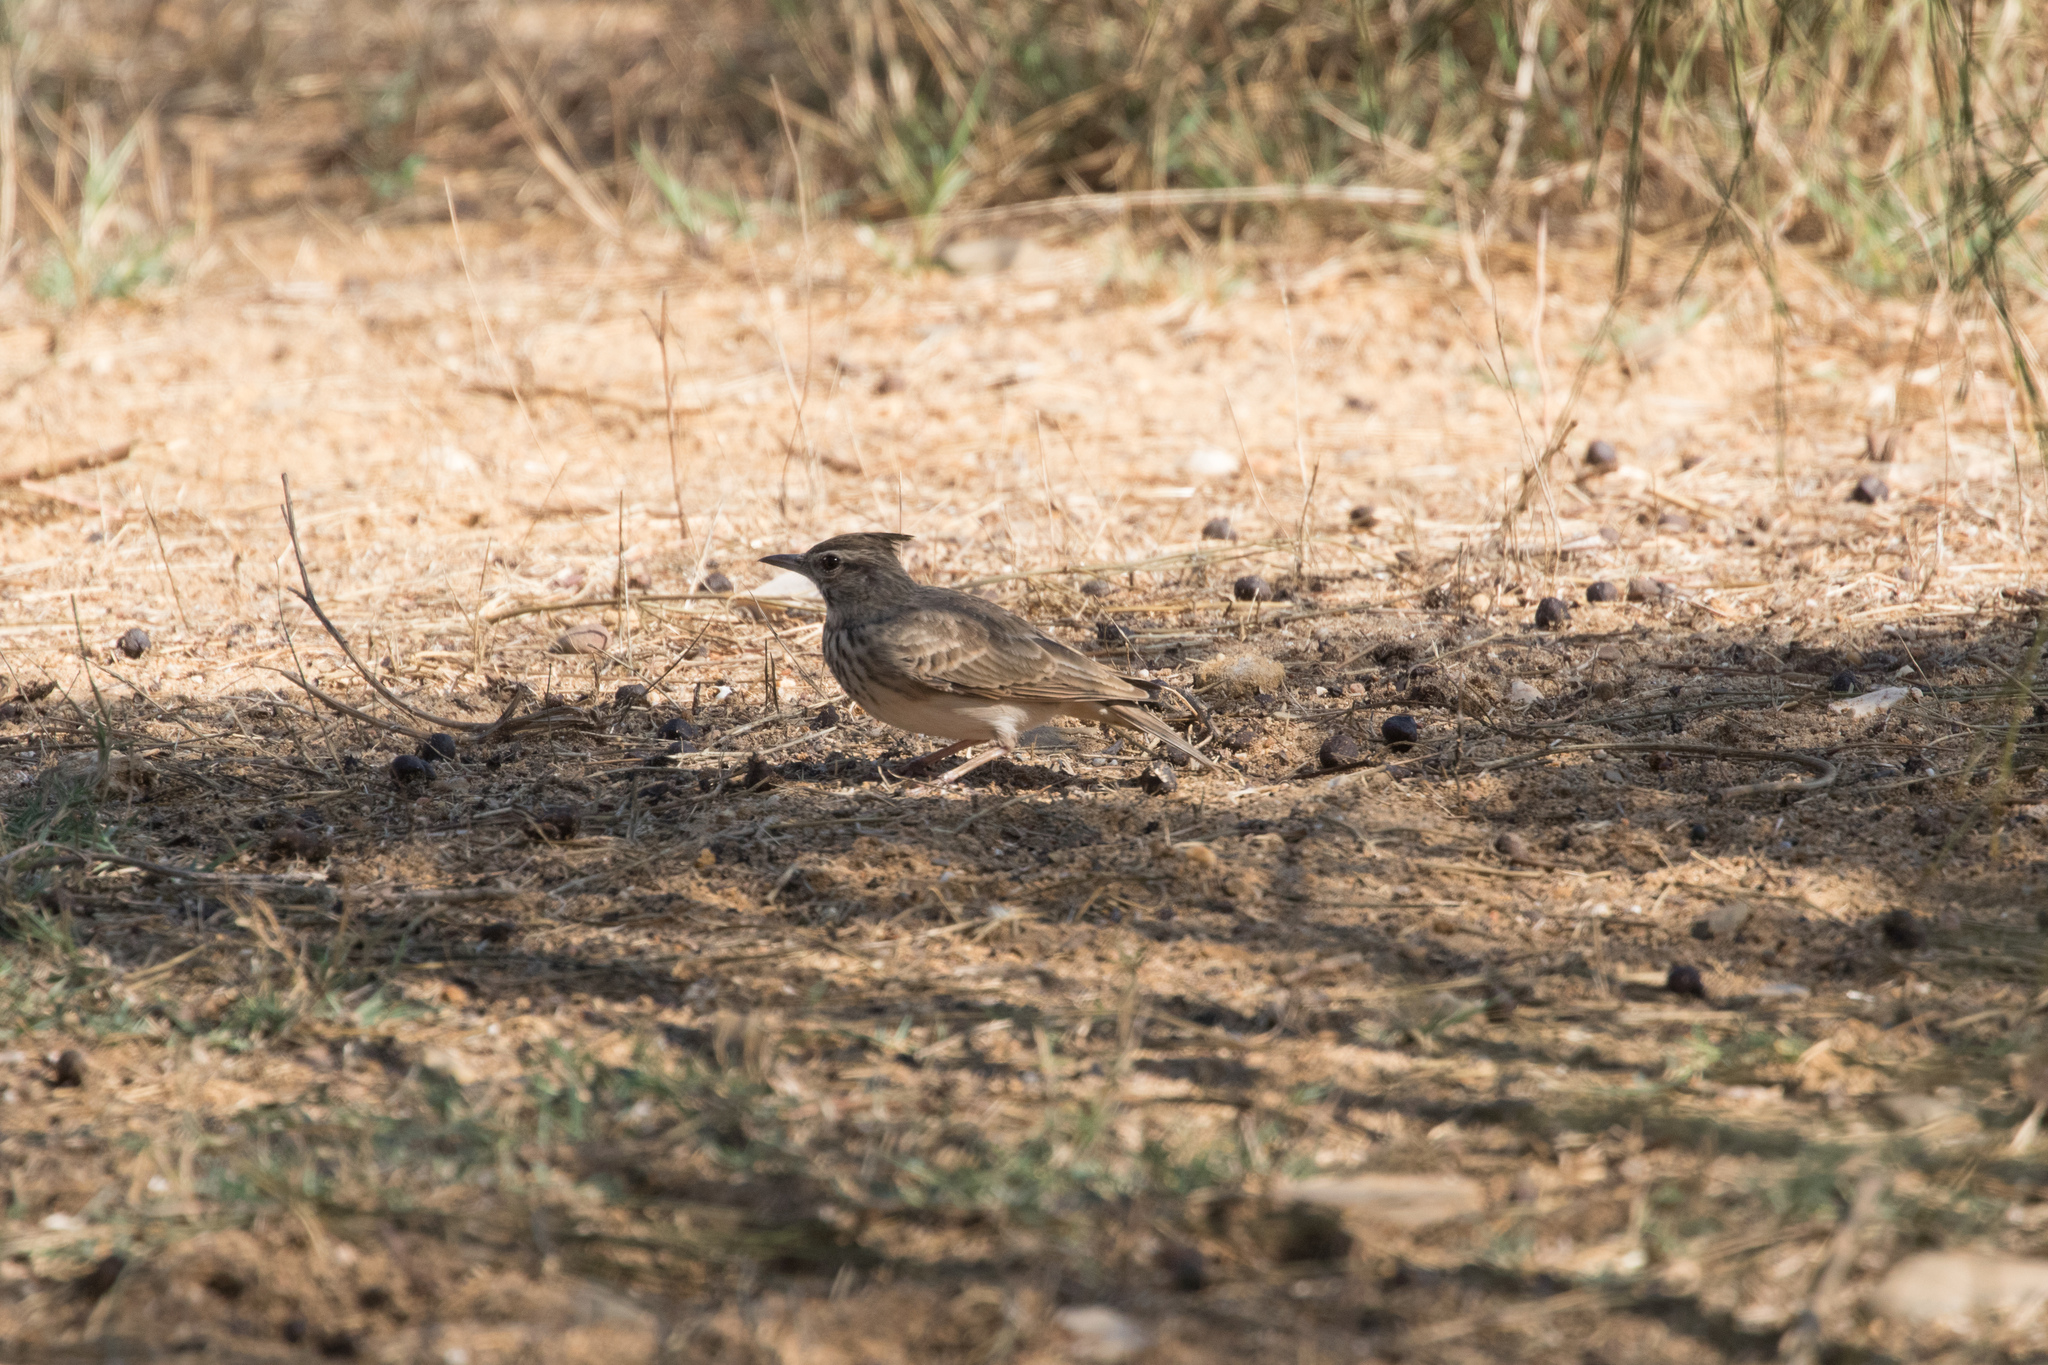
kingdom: Animalia
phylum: Chordata
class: Aves
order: Passeriformes
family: Alaudidae
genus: Galerida
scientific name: Galerida cristata
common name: Crested lark
